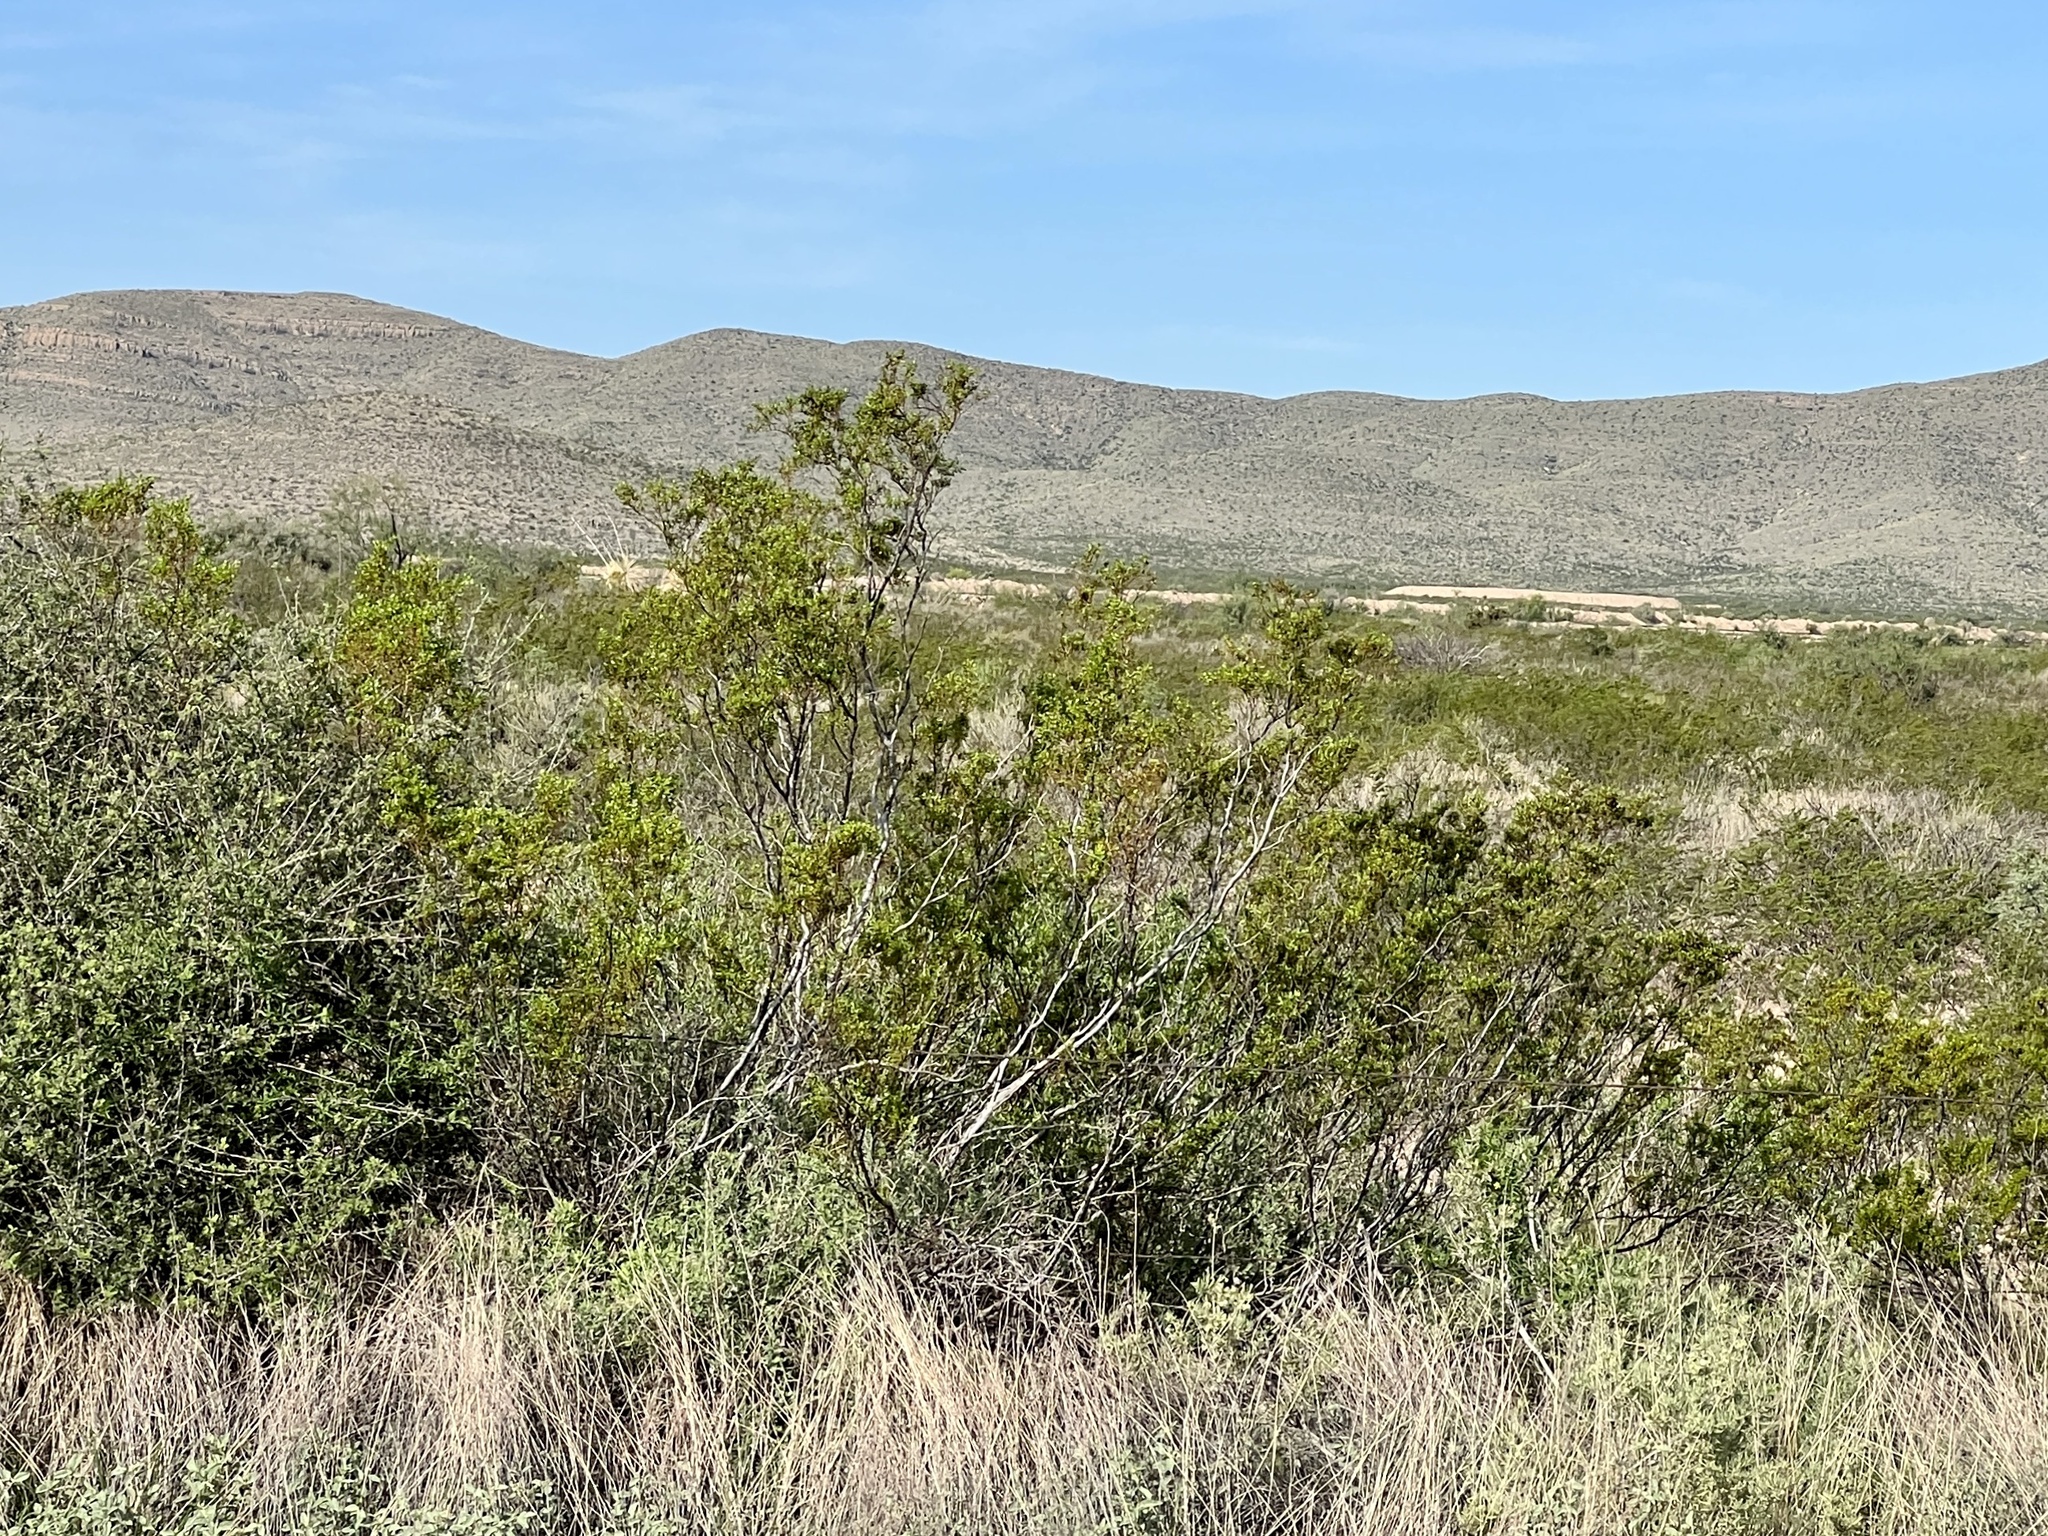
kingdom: Plantae
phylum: Tracheophyta
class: Magnoliopsida
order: Zygophyllales
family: Zygophyllaceae
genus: Larrea
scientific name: Larrea tridentata
